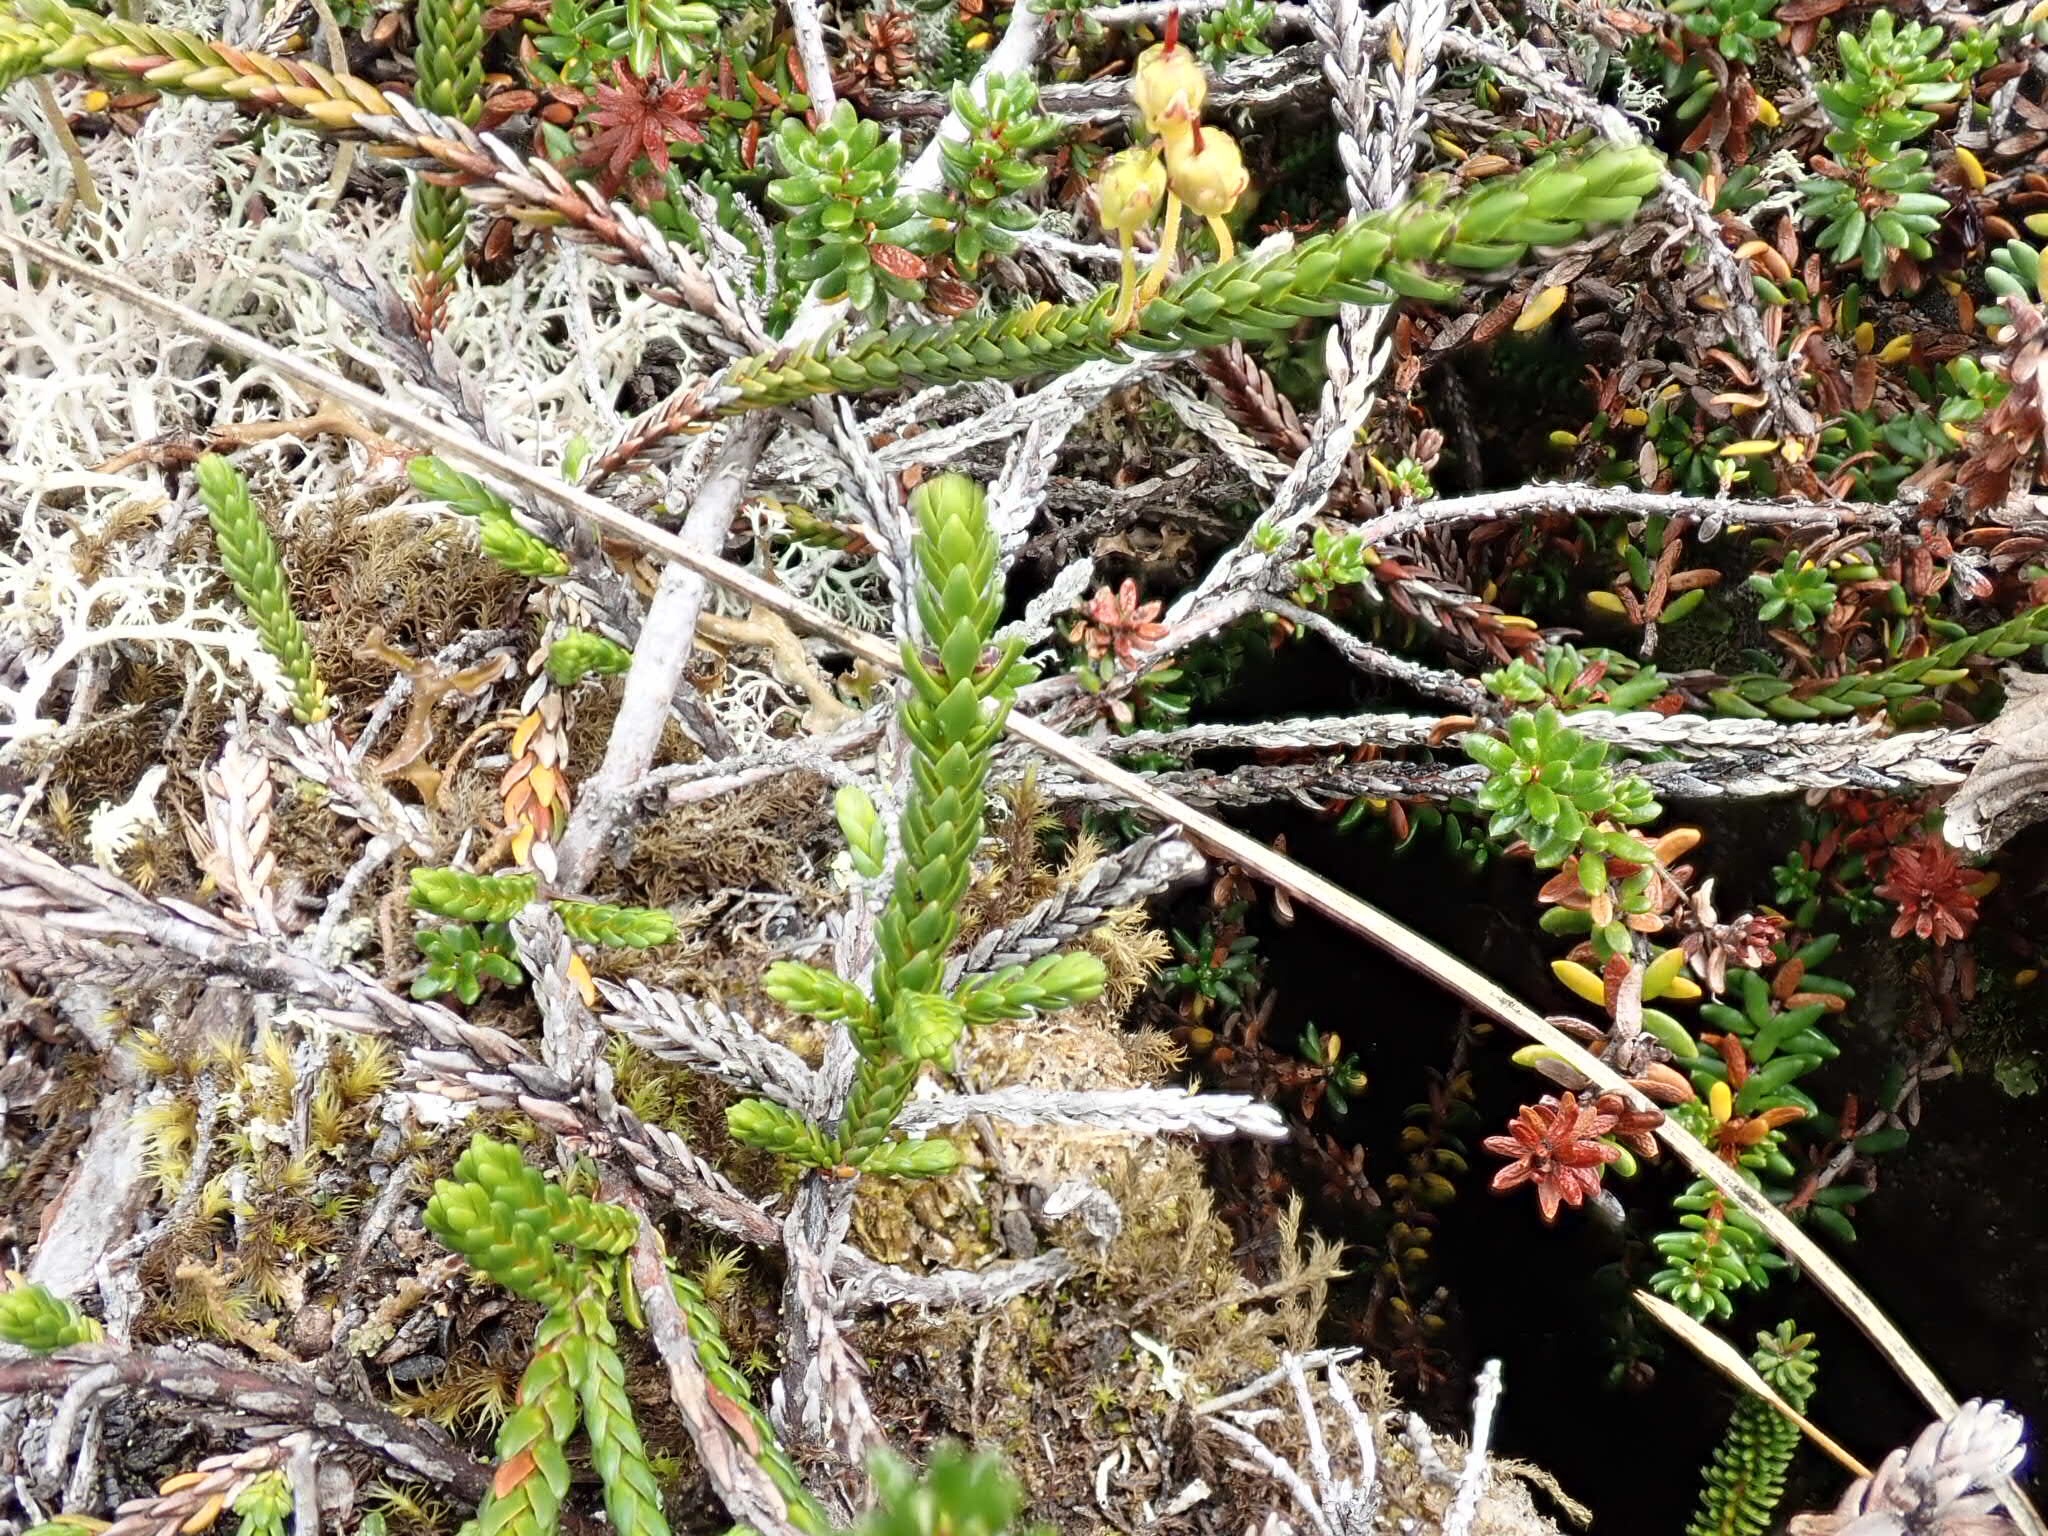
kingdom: Plantae
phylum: Tracheophyta
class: Magnoliopsida
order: Ericales
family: Ericaceae
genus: Cassiope
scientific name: Cassiope mertensiana
